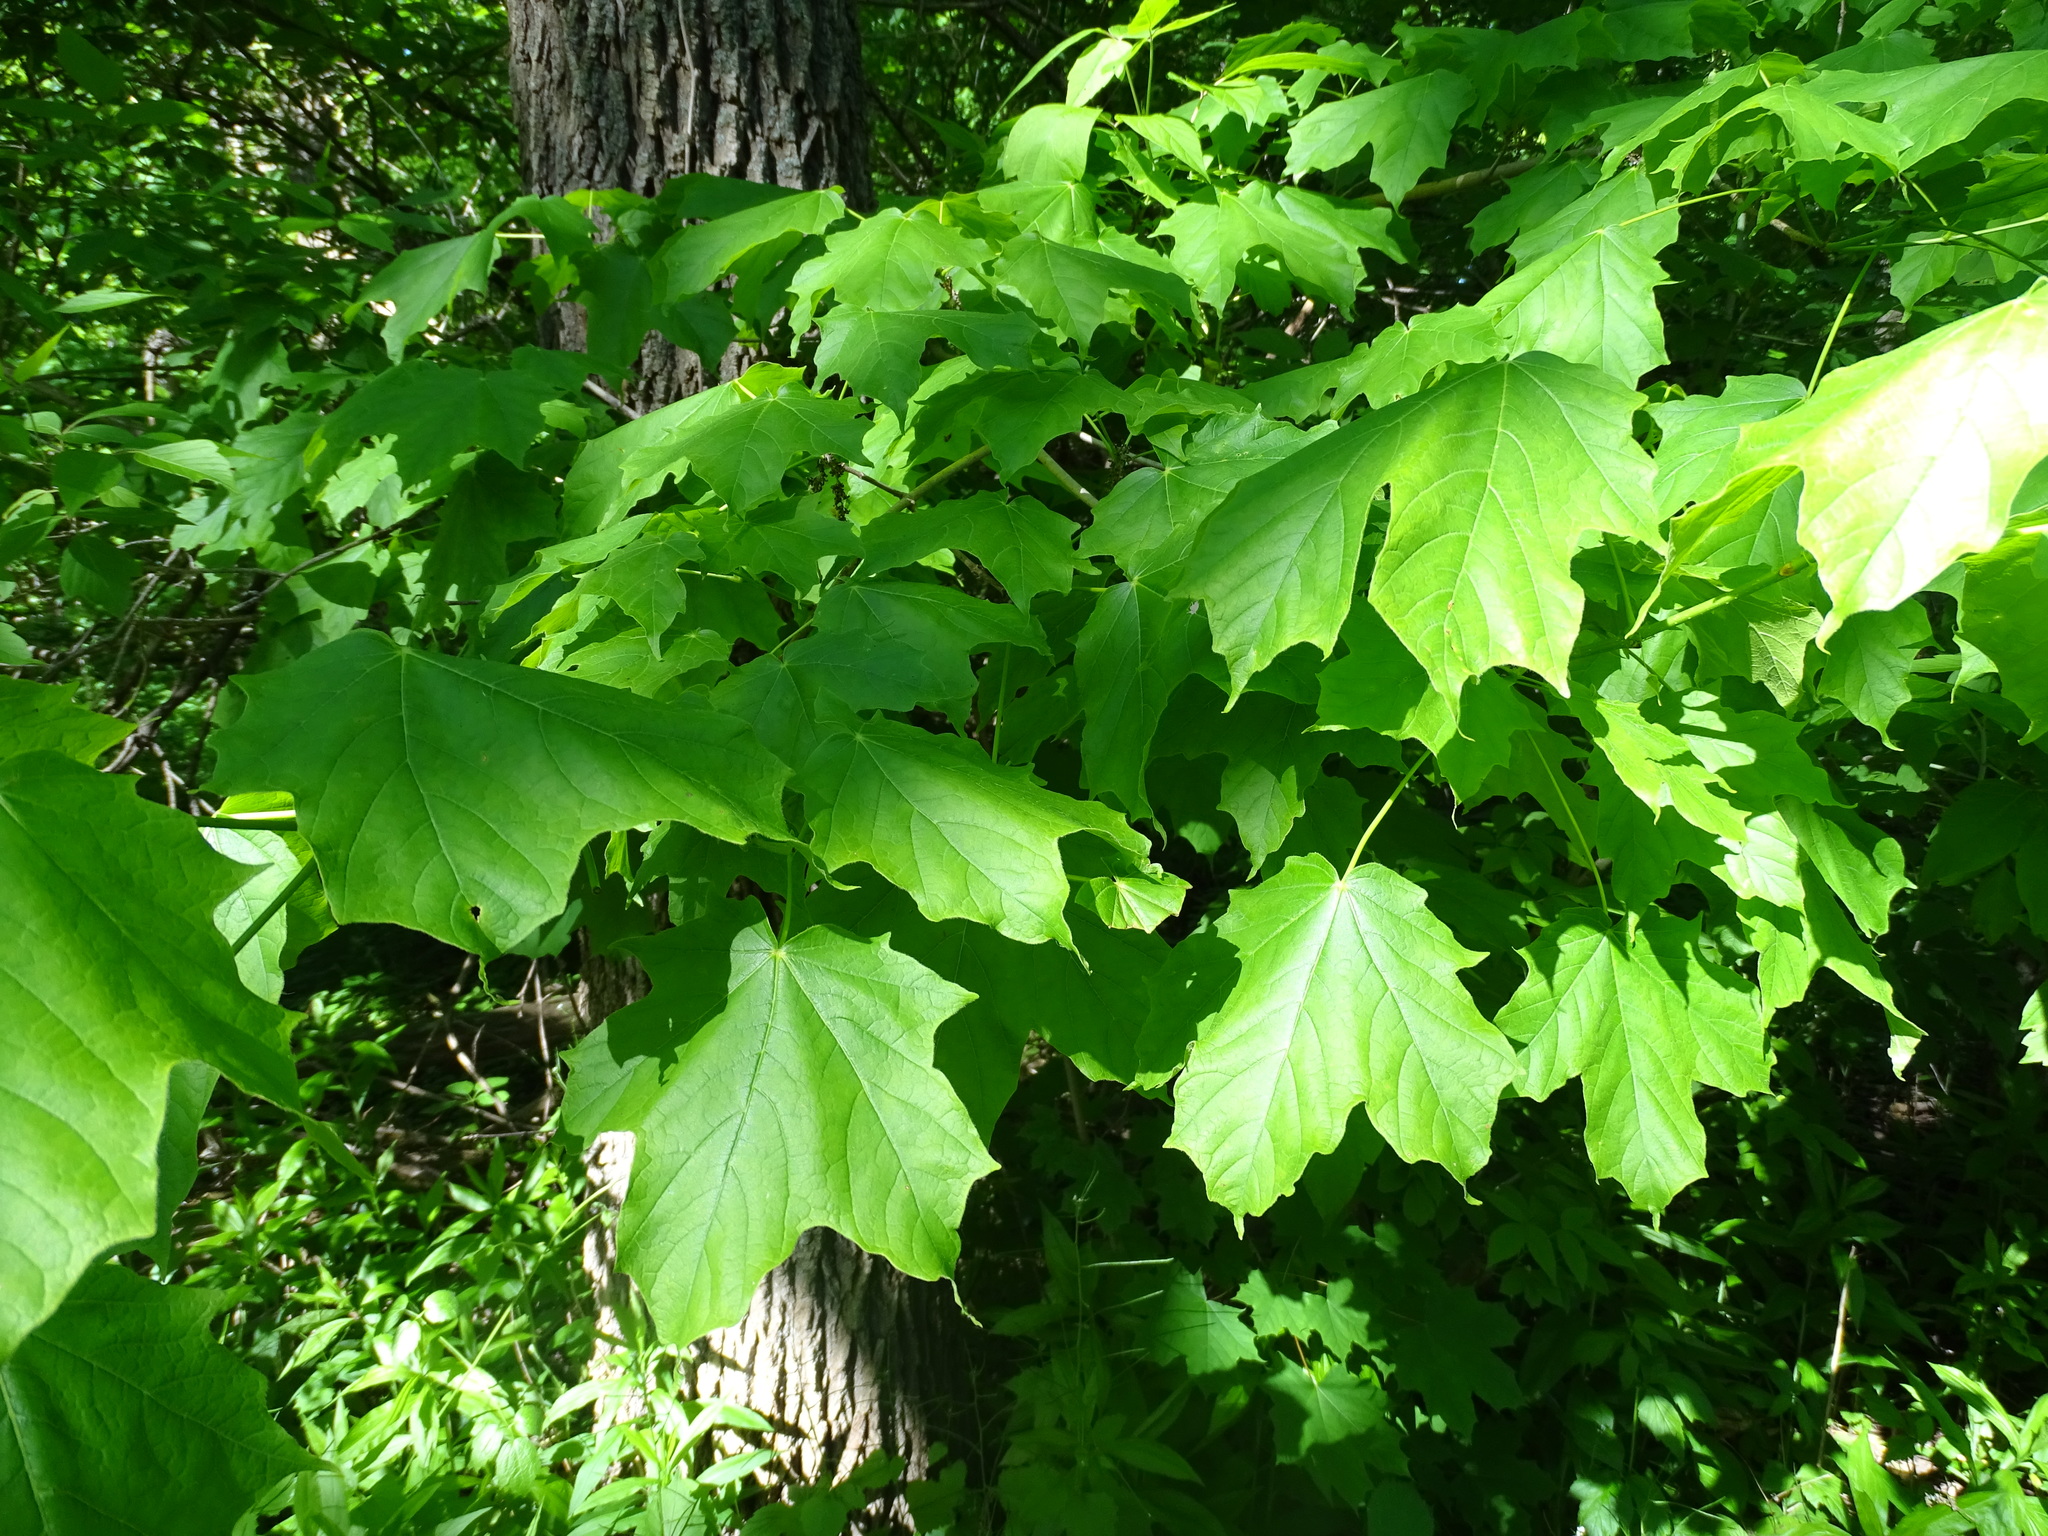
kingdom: Plantae
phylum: Tracheophyta
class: Magnoliopsida
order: Sapindales
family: Sapindaceae
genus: Acer
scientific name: Acer nigrum
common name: Black maple
